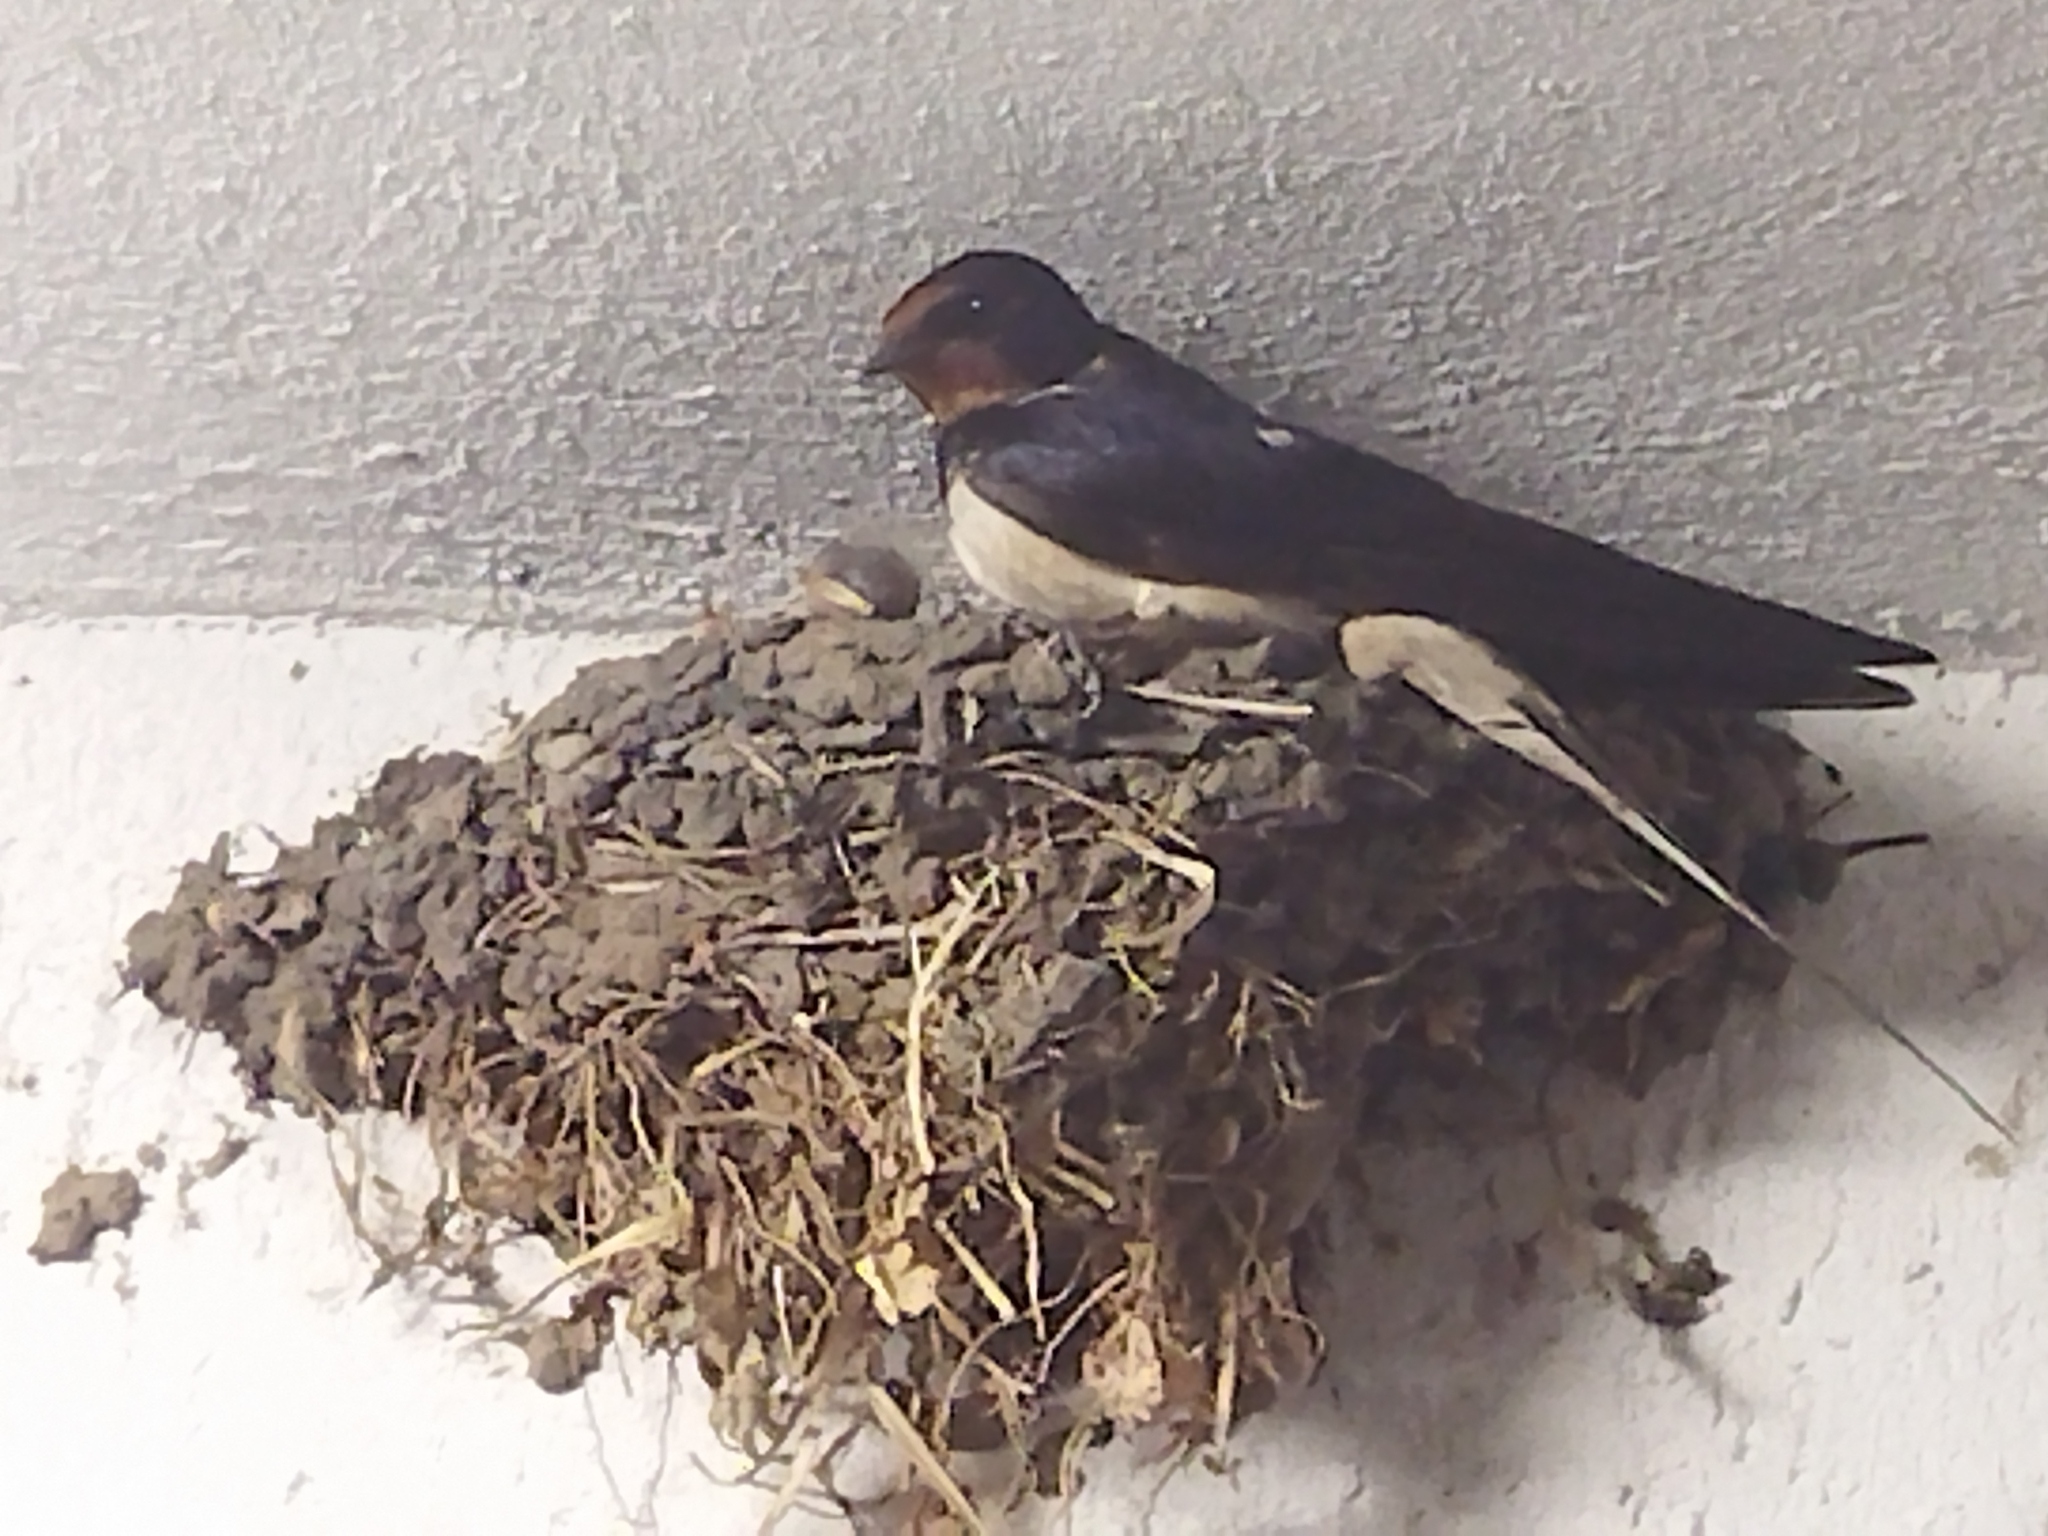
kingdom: Animalia
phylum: Chordata
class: Aves
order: Passeriformes
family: Hirundinidae
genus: Hirundo
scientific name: Hirundo rustica
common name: Barn swallow
